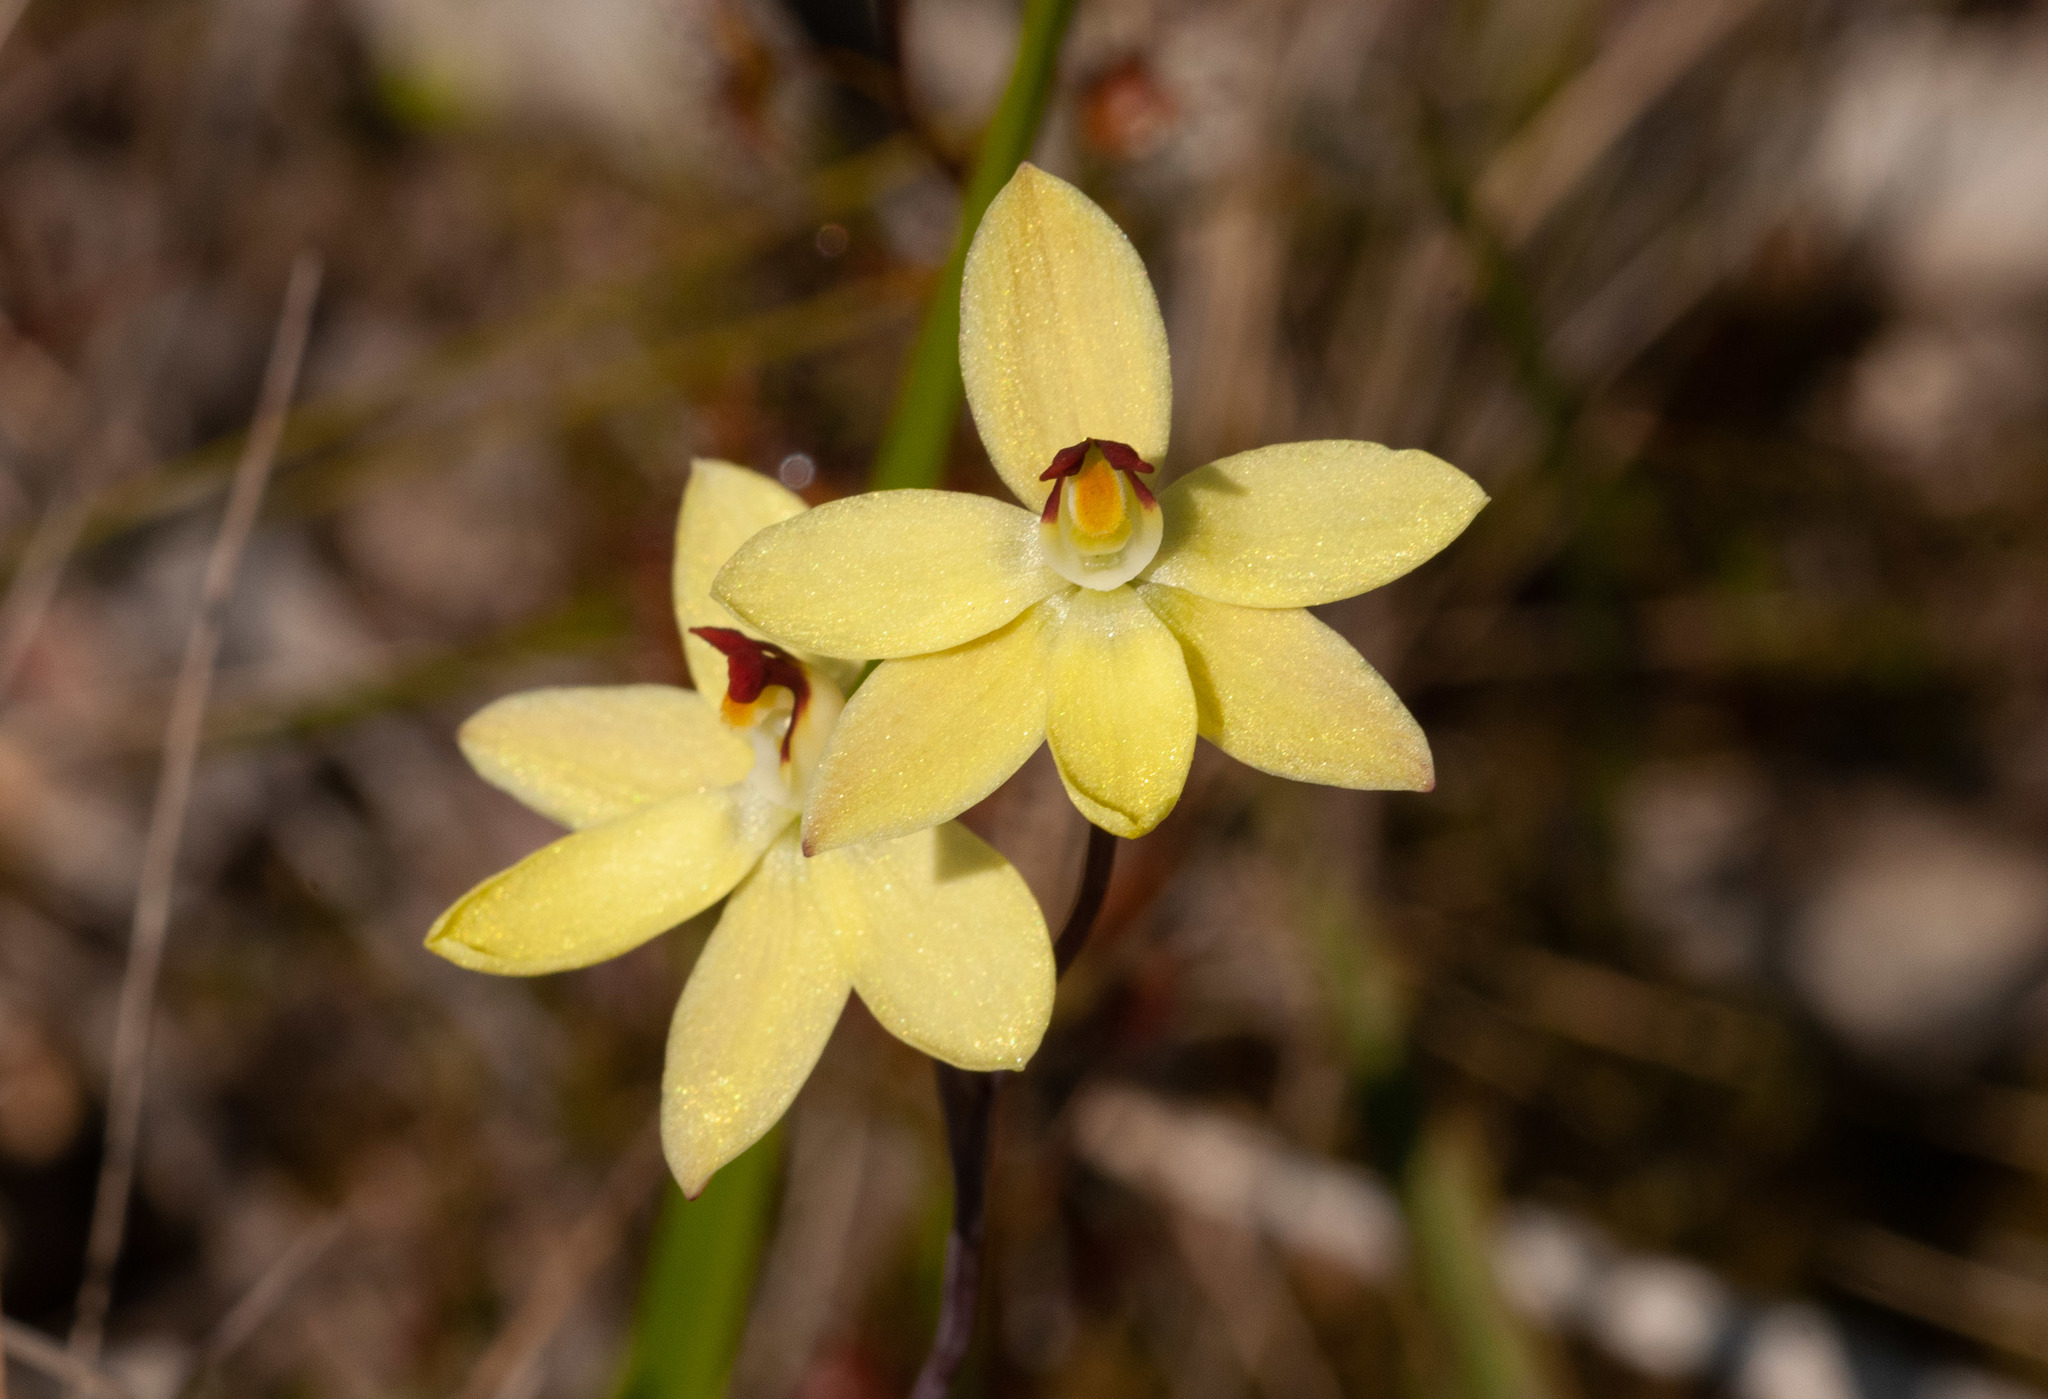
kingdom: Plantae
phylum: Tracheophyta
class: Liliopsida
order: Asparagales
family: Orchidaceae
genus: Thelymitra
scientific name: Thelymitra antennifera
